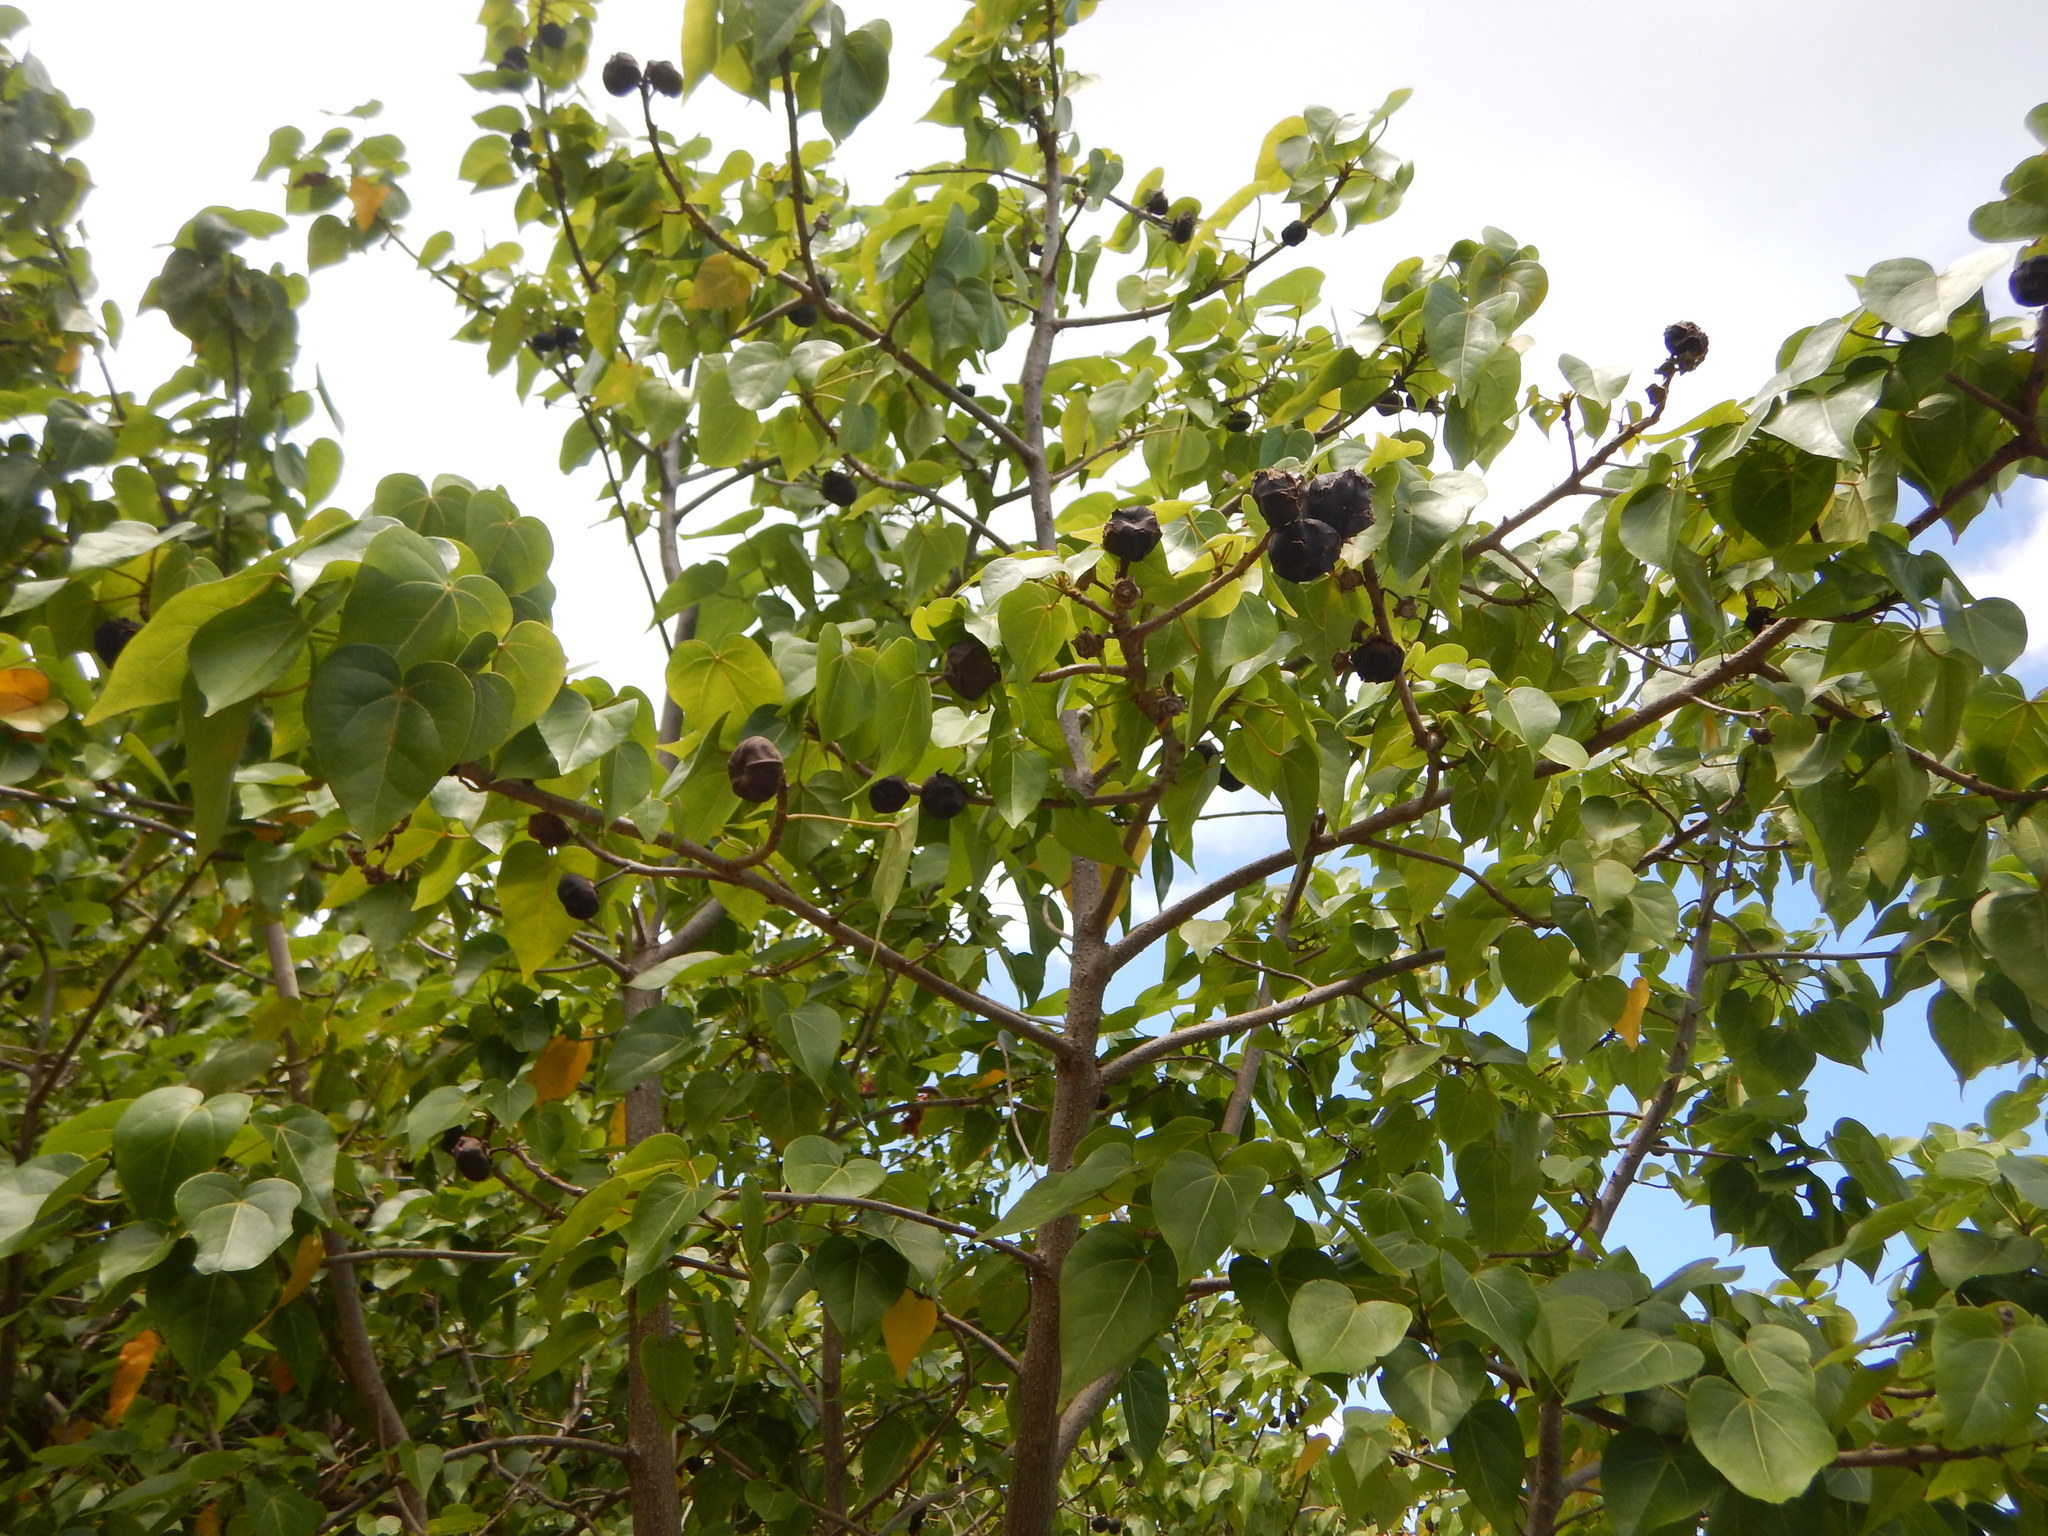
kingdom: Plantae
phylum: Tracheophyta
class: Magnoliopsida
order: Malvales
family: Malvaceae
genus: Thespesia
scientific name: Thespesia populnea
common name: Seaside mahoe
